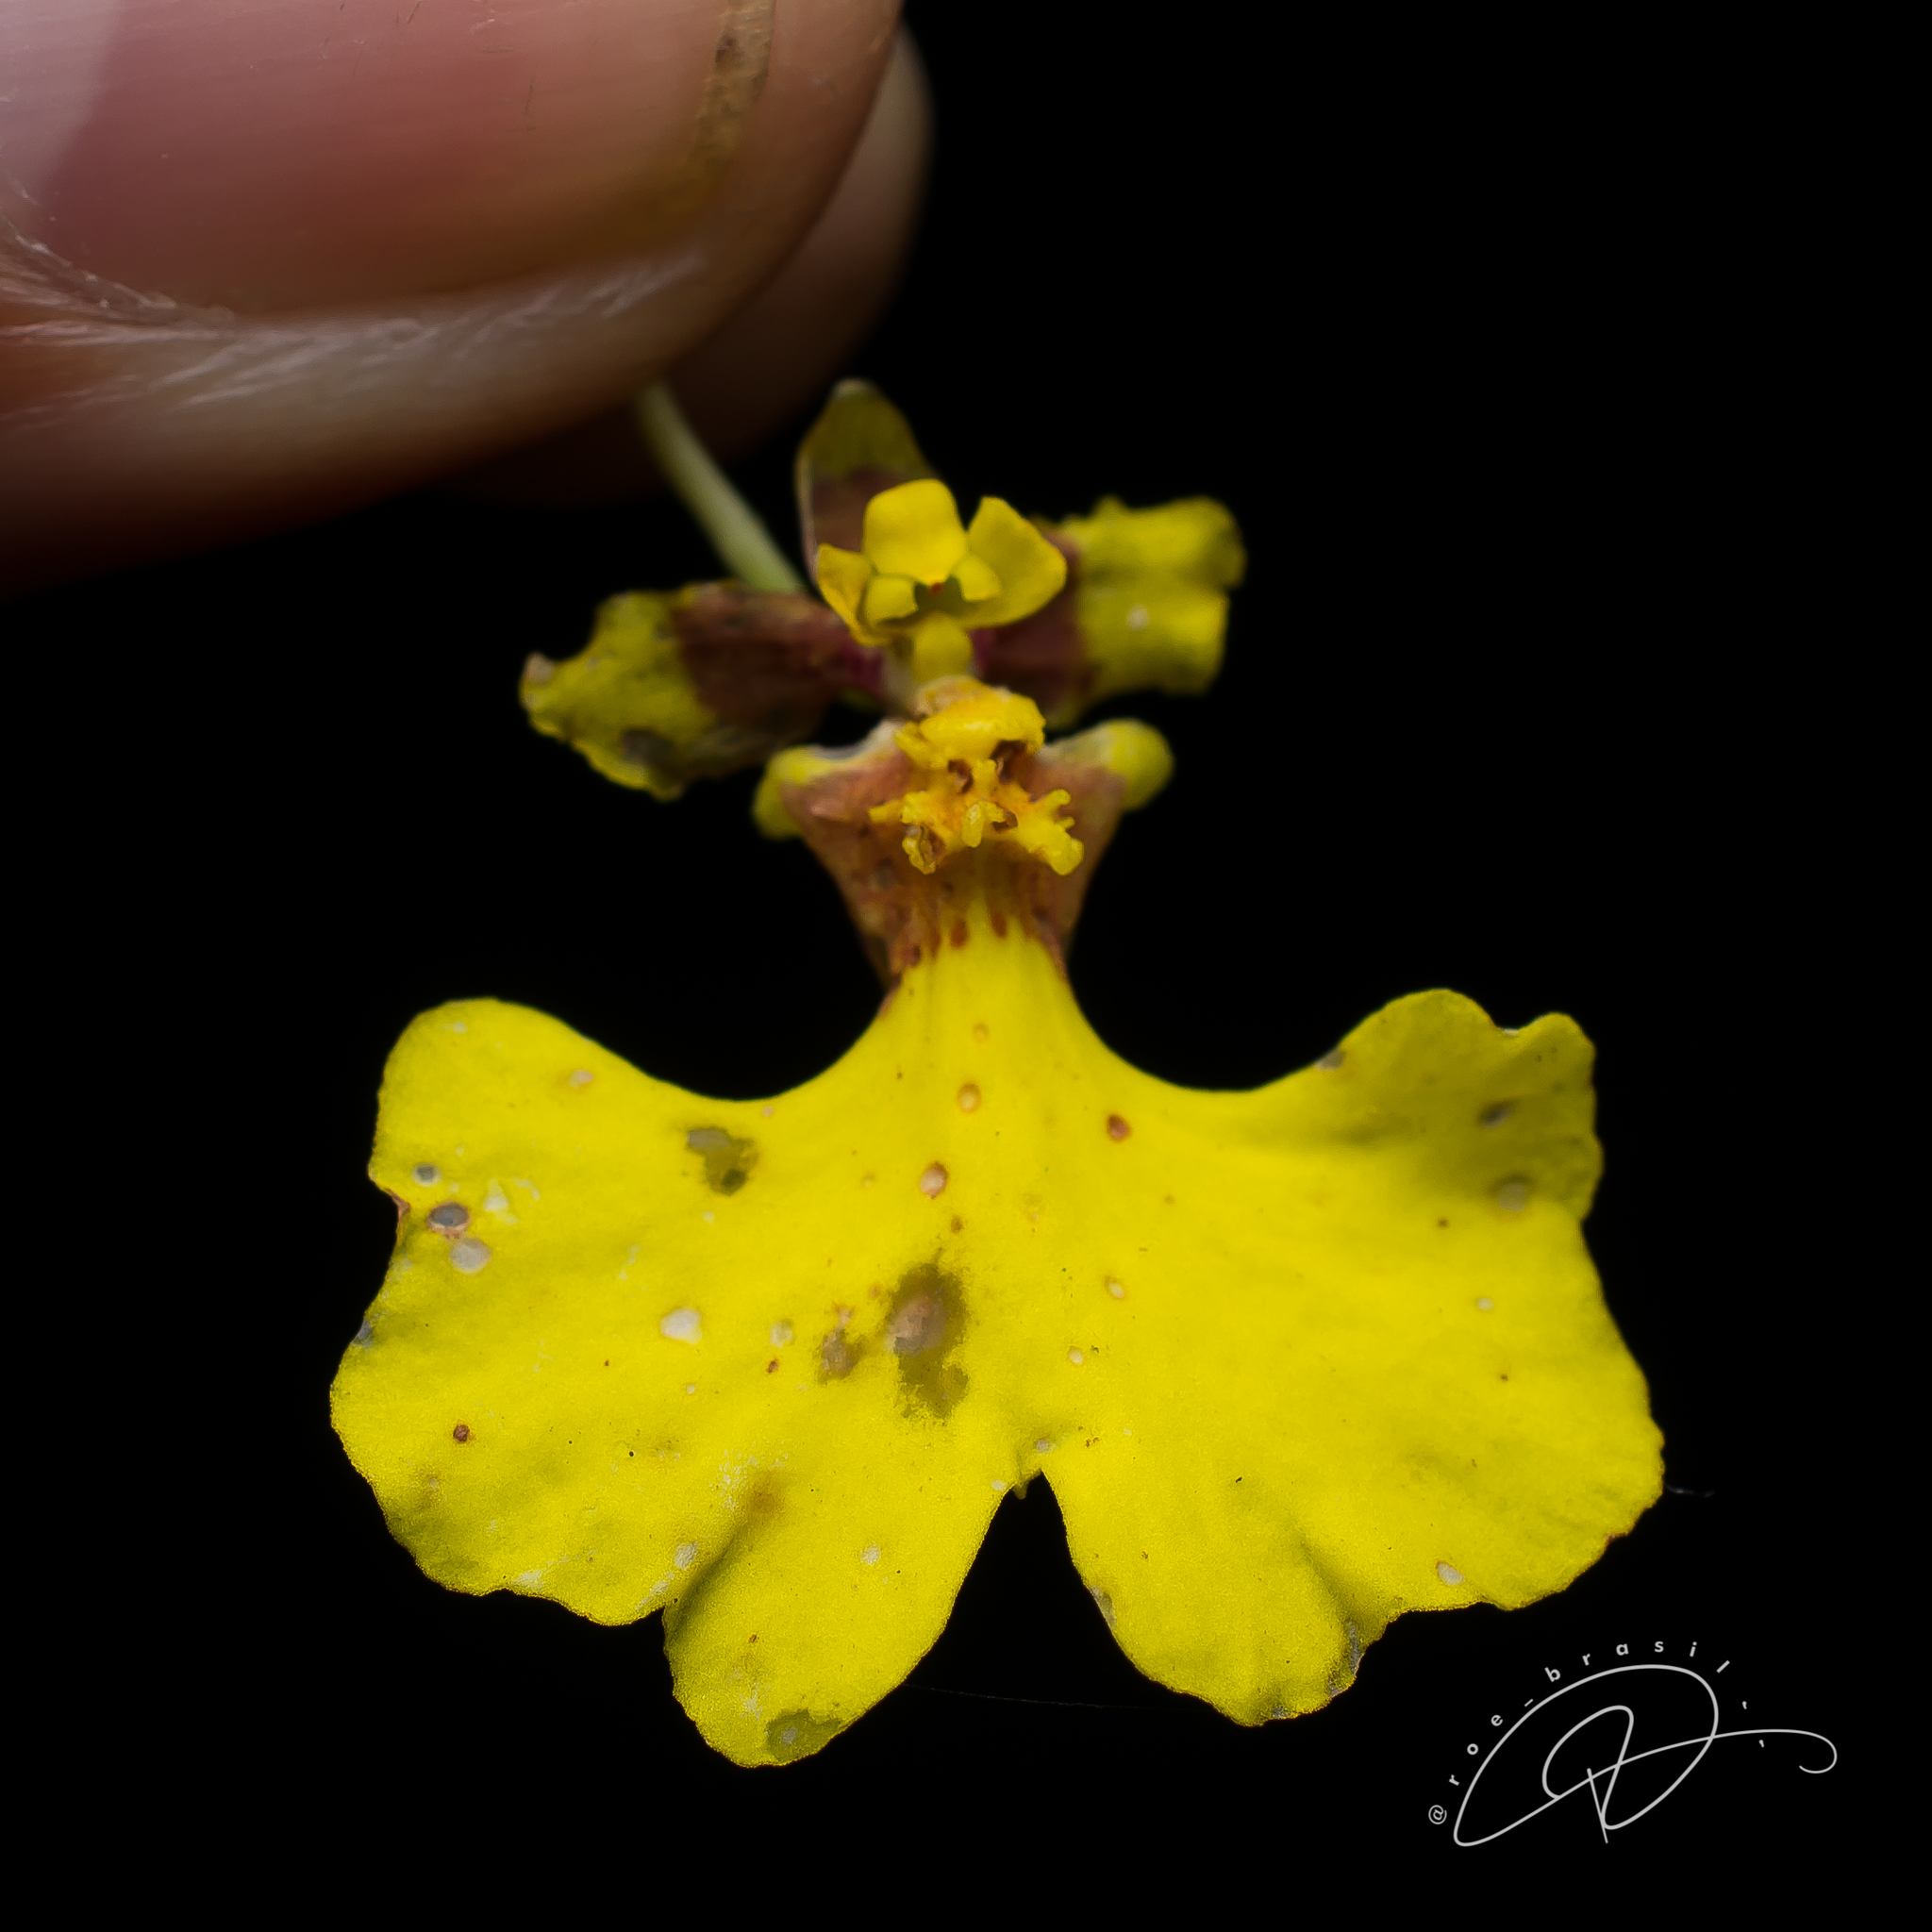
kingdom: Plantae
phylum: Tracheophyta
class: Liliopsida
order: Asparagales
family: Orchidaceae
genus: Gomesa
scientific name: Gomesa flexuosa
